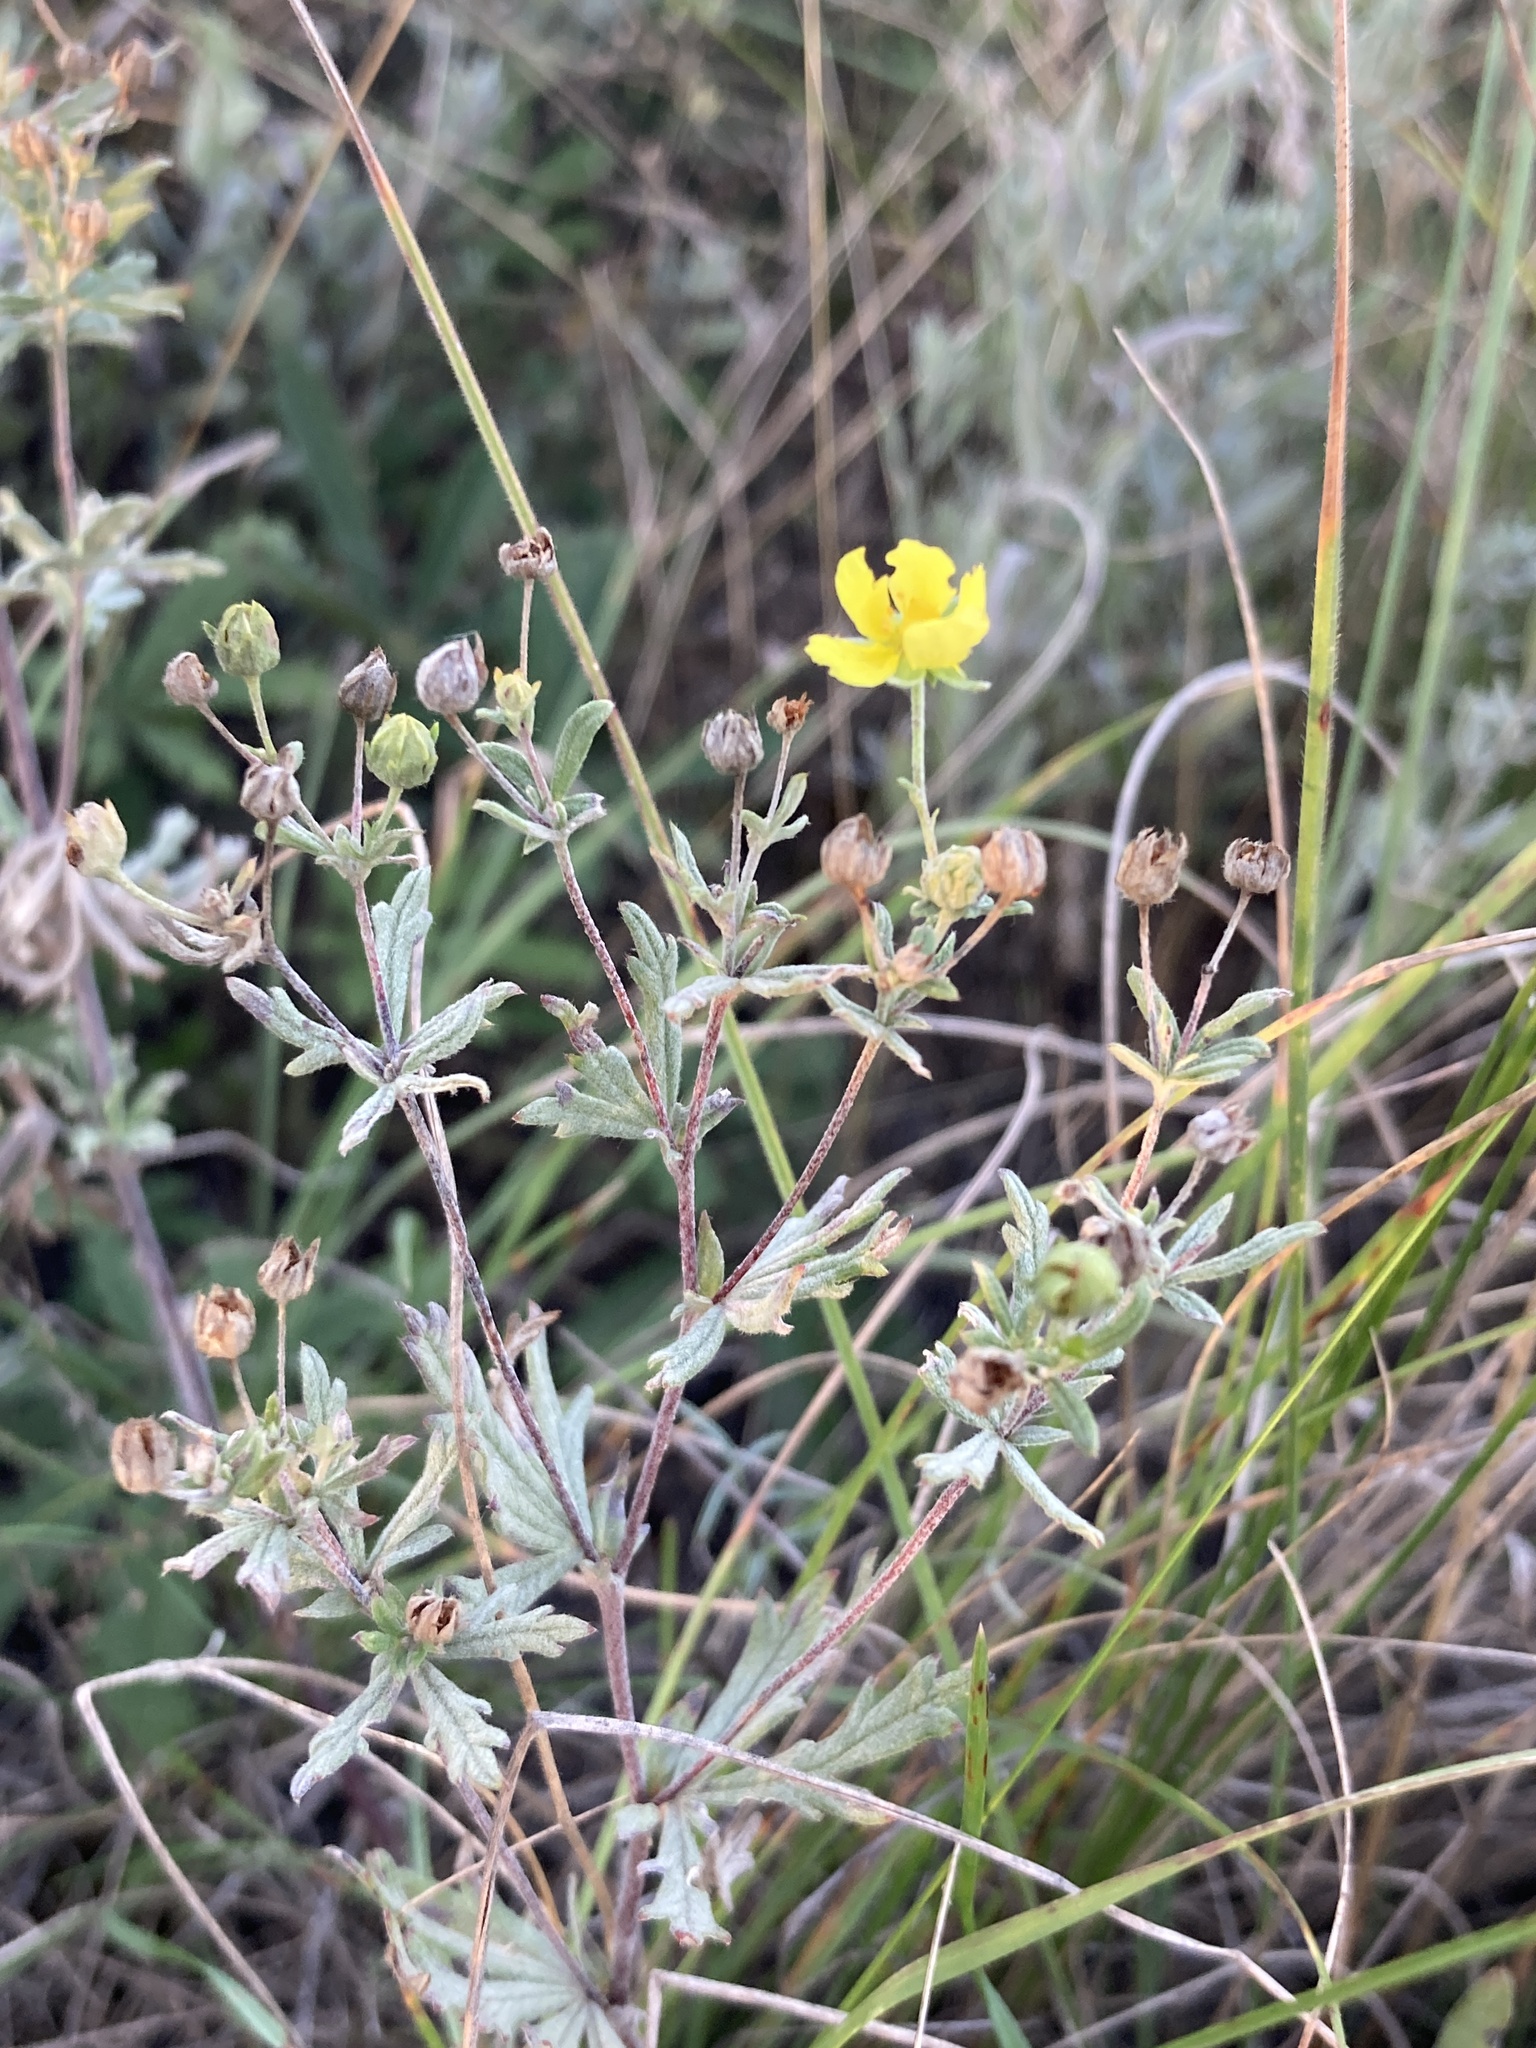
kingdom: Plantae
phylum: Tracheophyta
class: Magnoliopsida
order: Rosales
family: Rosaceae
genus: Potentilla
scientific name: Potentilla argentea
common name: Hoary cinquefoil
